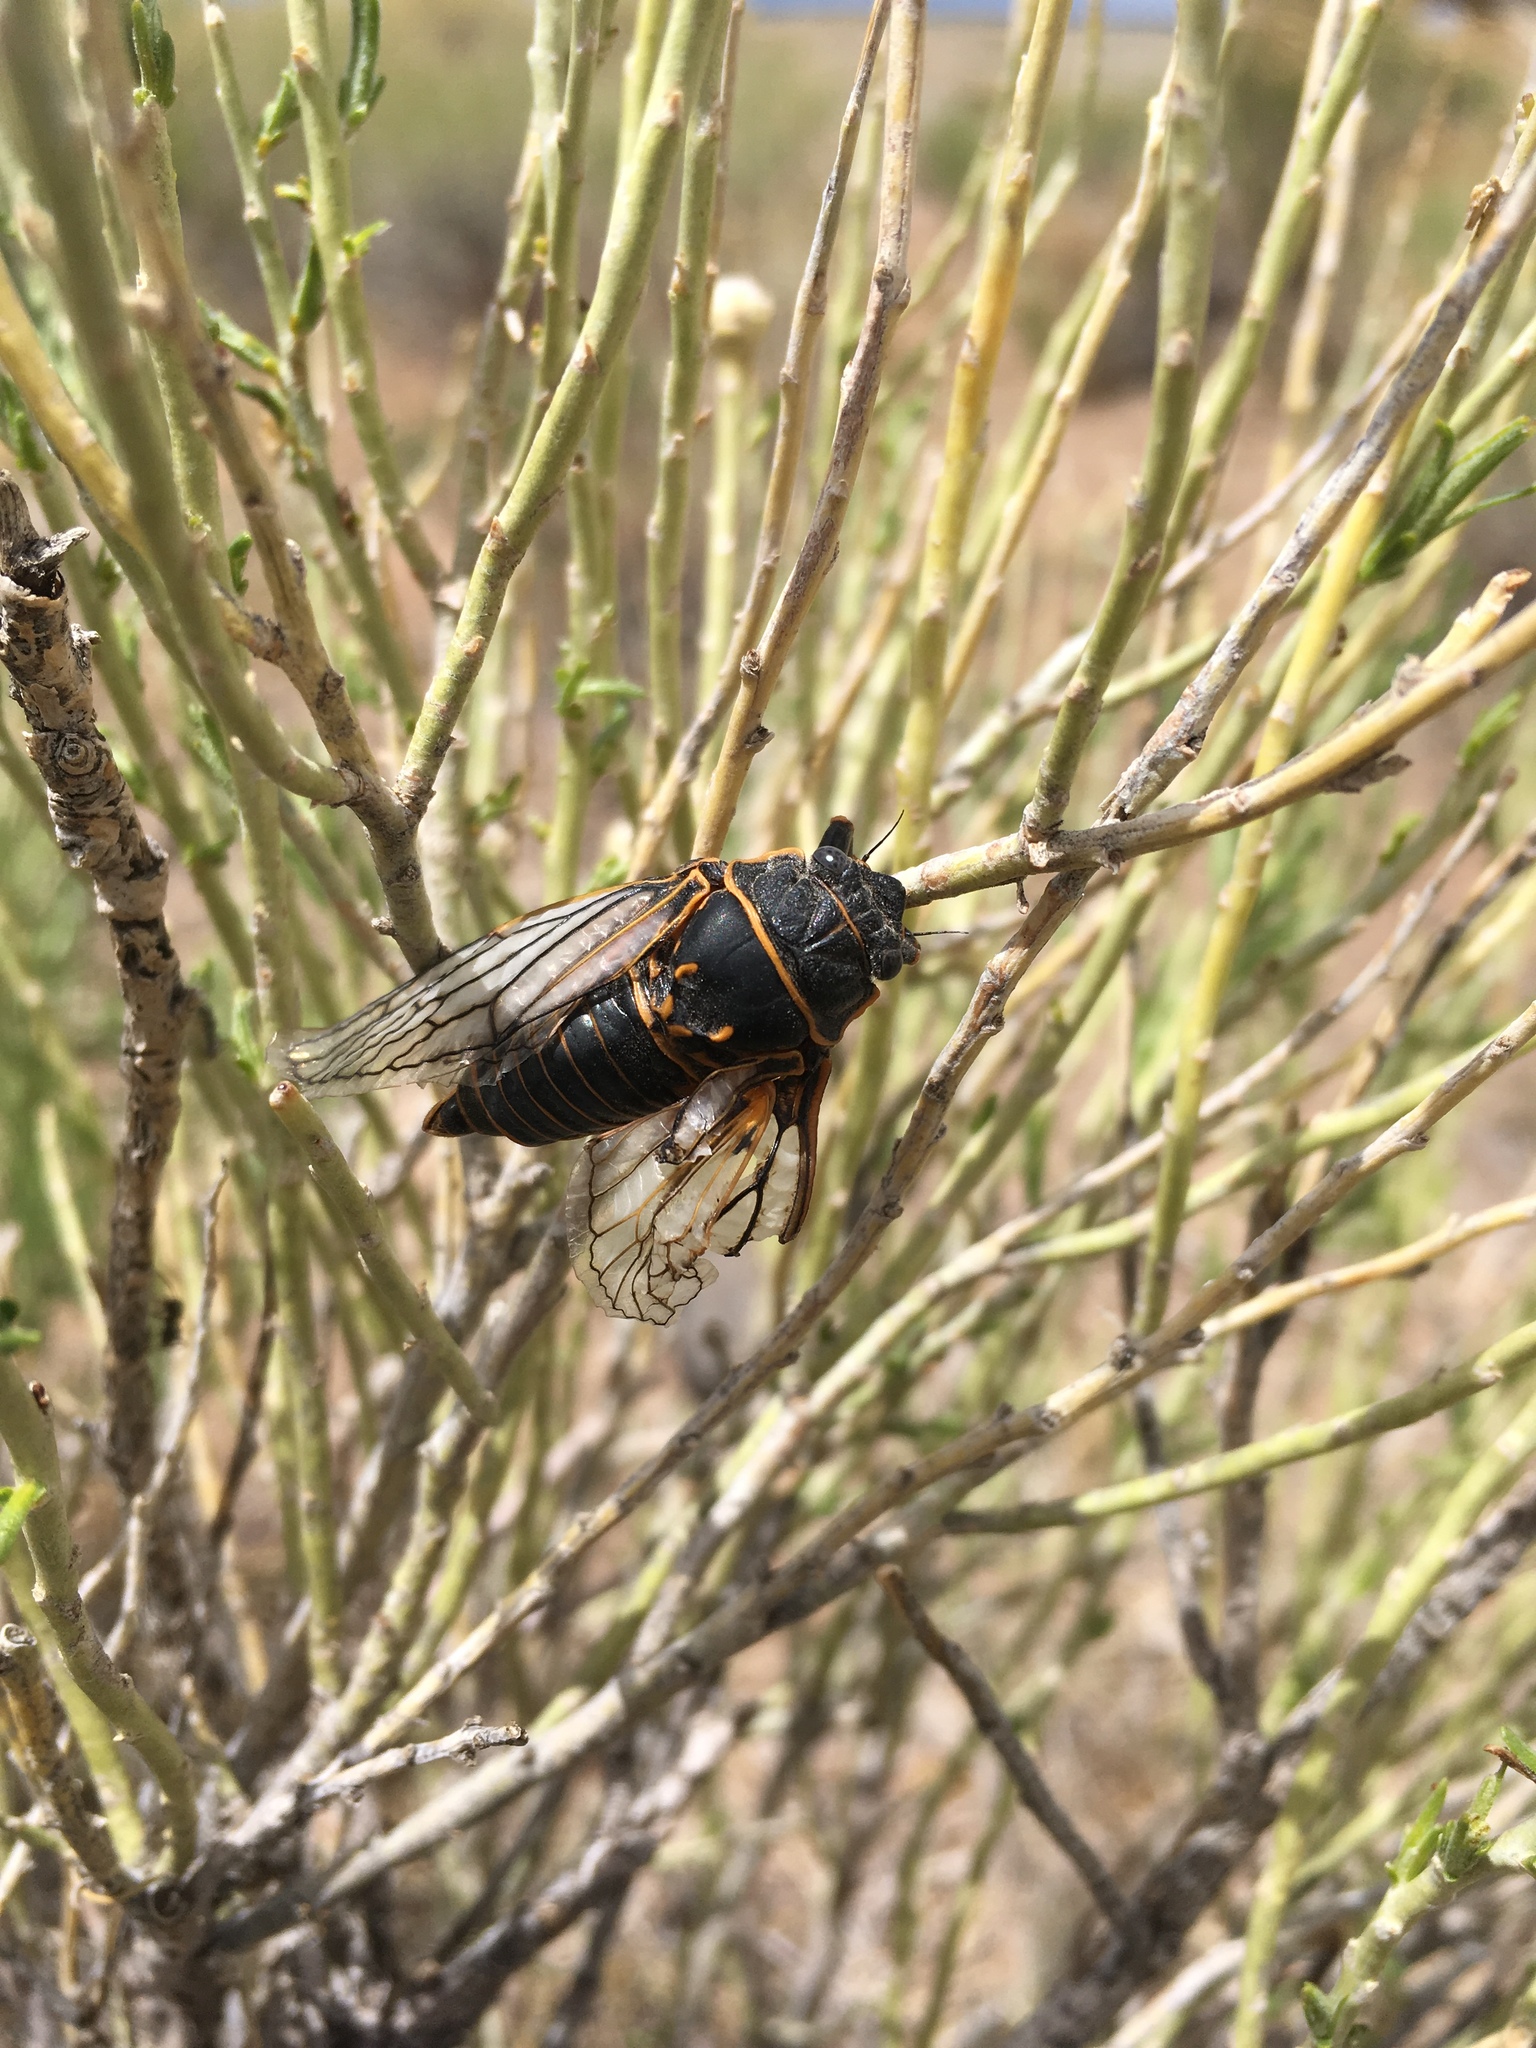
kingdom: Animalia
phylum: Arthropoda
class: Insecta
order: Hemiptera
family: Cicadidae
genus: Okanagana
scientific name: Okanagana fumipennis
